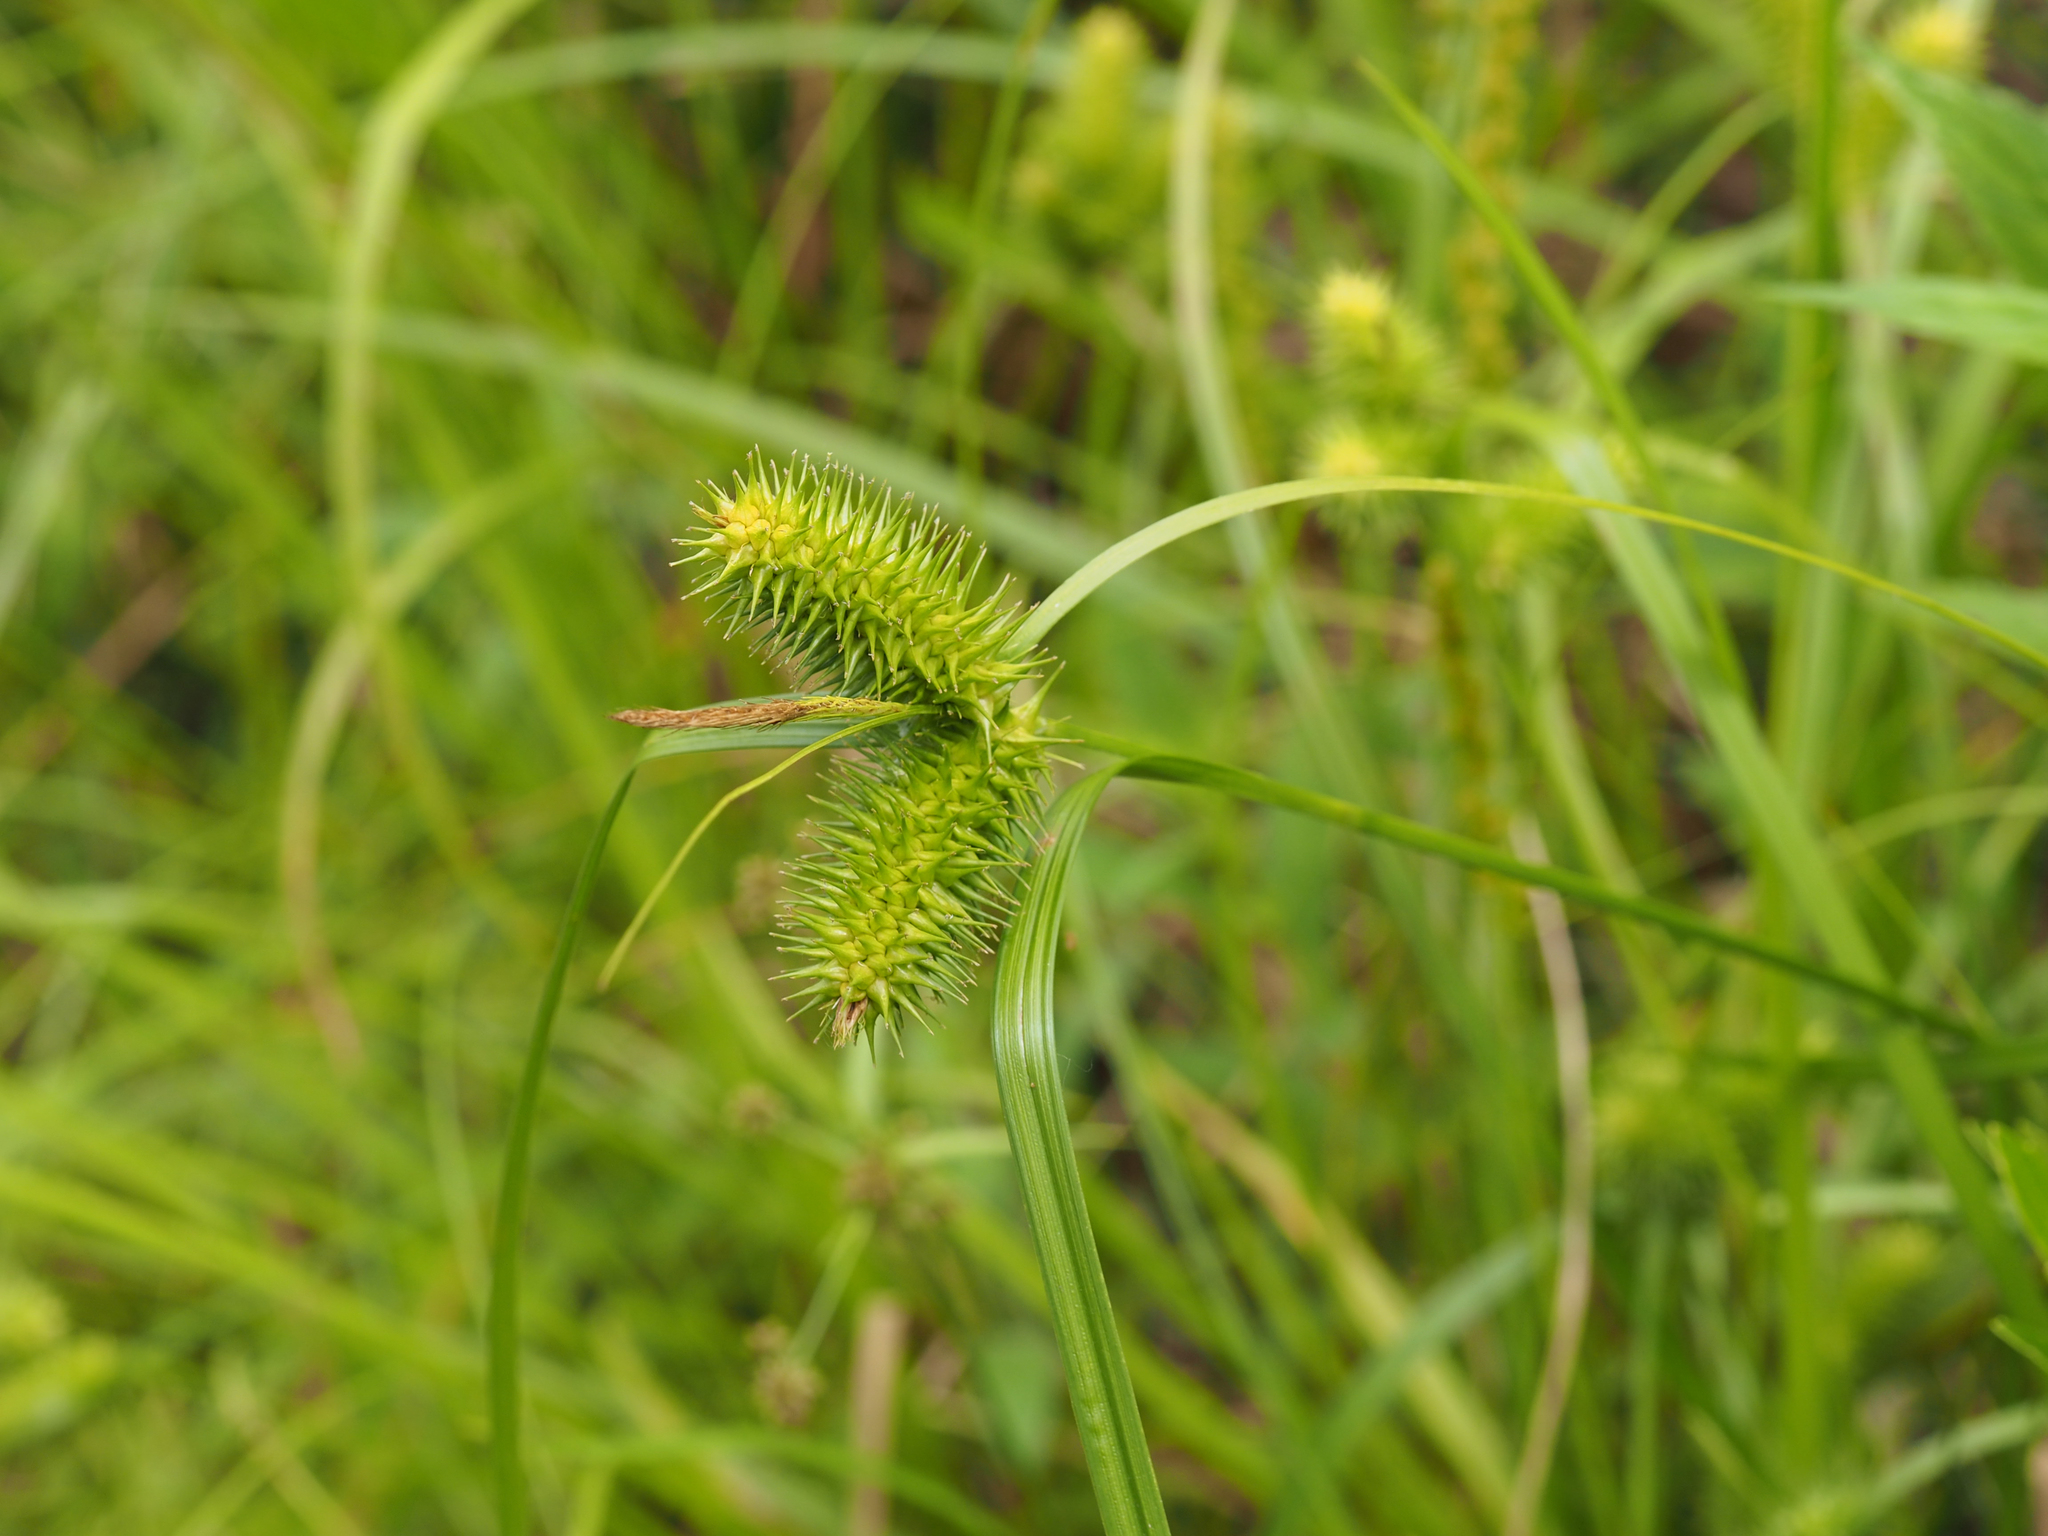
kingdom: Plantae
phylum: Tracheophyta
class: Liliopsida
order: Poales
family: Cyperaceae
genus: Carex
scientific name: Carex lurida
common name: Sallow sedge
